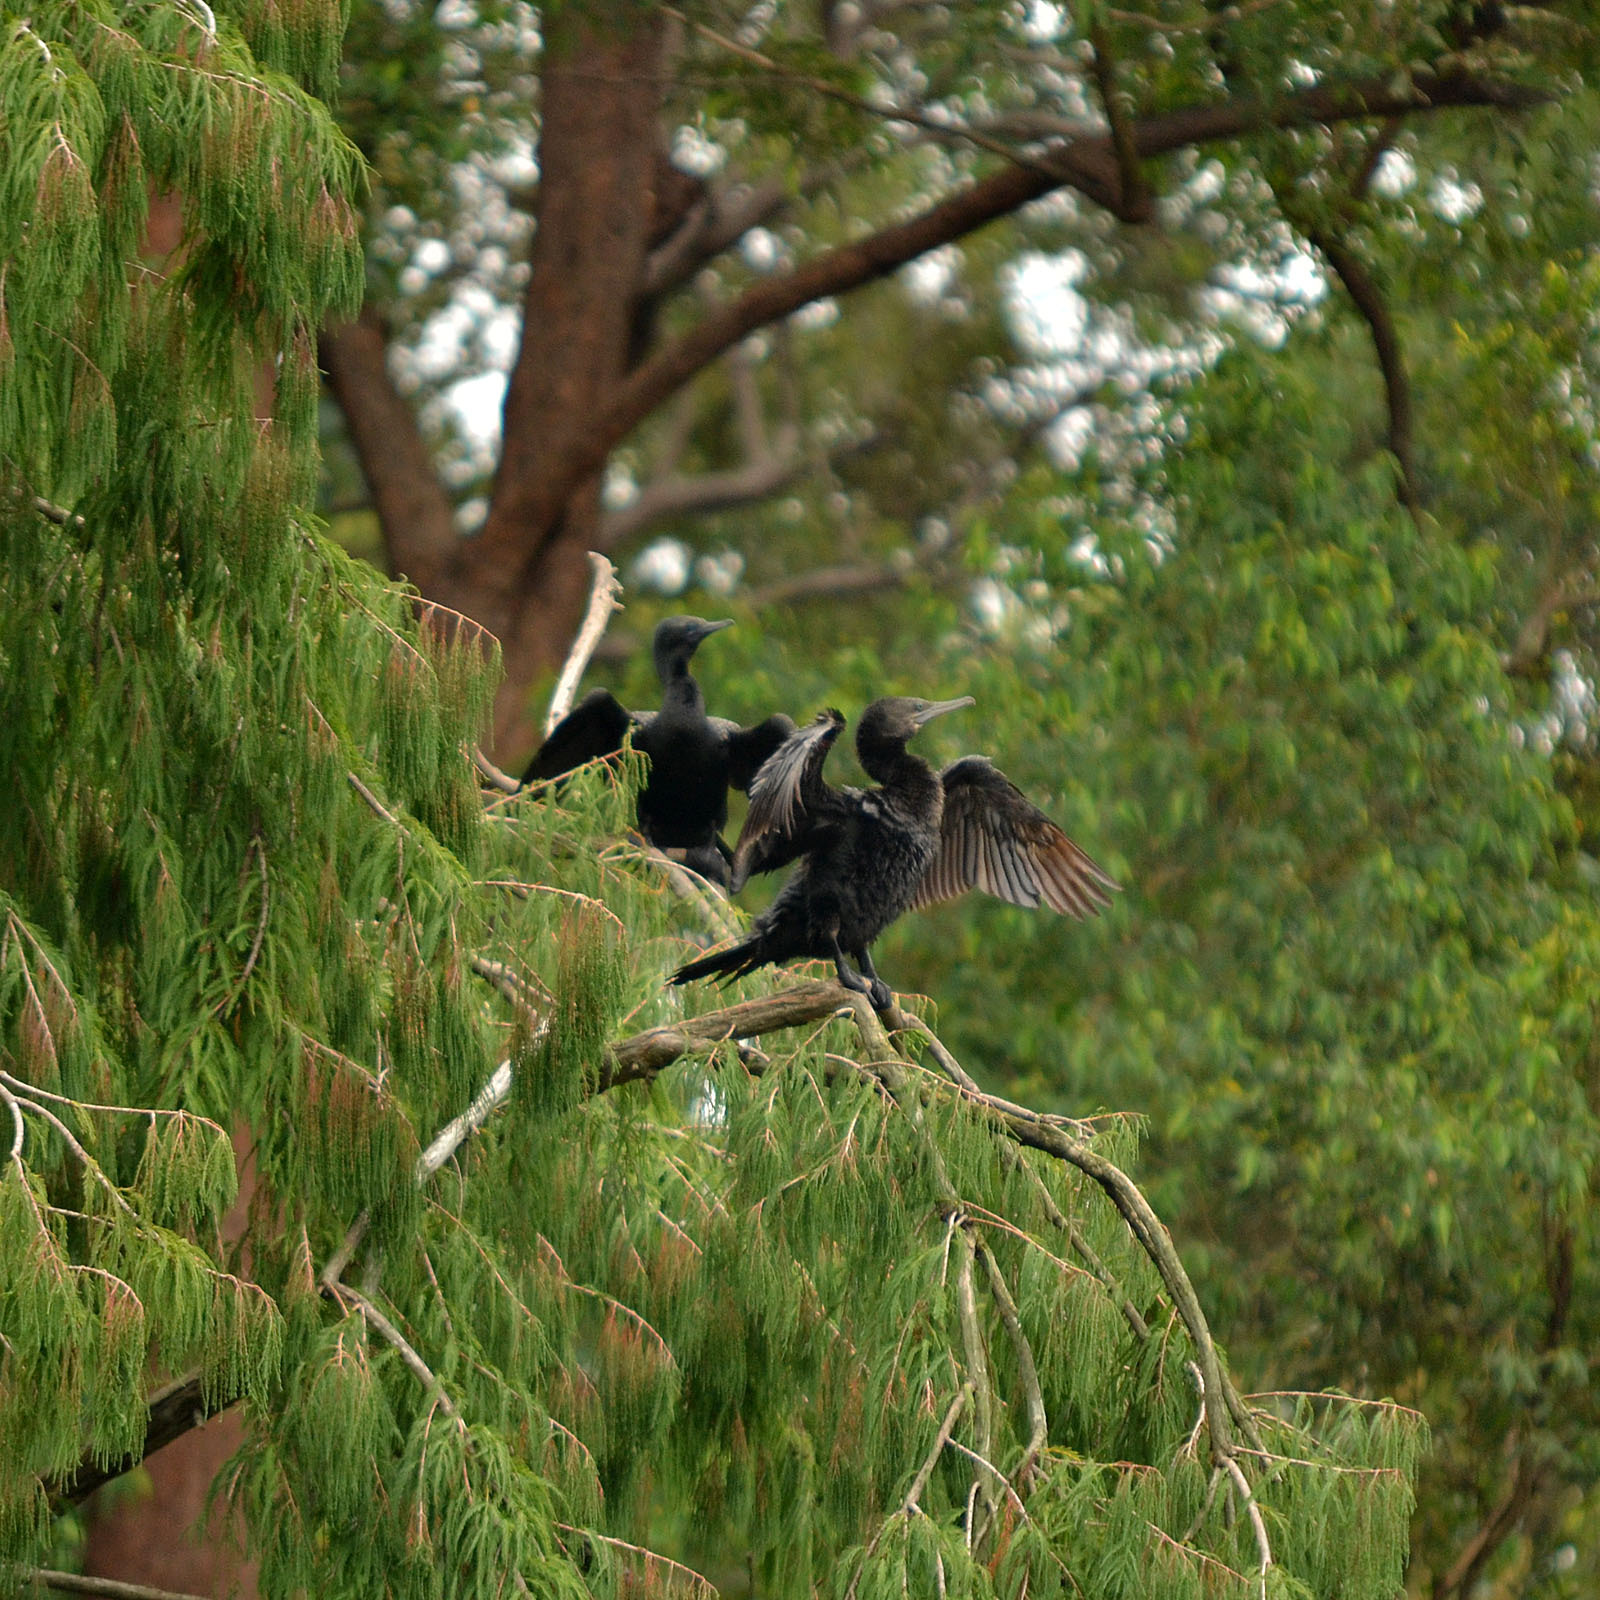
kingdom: Animalia
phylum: Chordata
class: Aves
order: Suliformes
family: Phalacrocoracidae
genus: Phalacrocorax
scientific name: Phalacrocorax sulcirostris
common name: Little black cormorant
